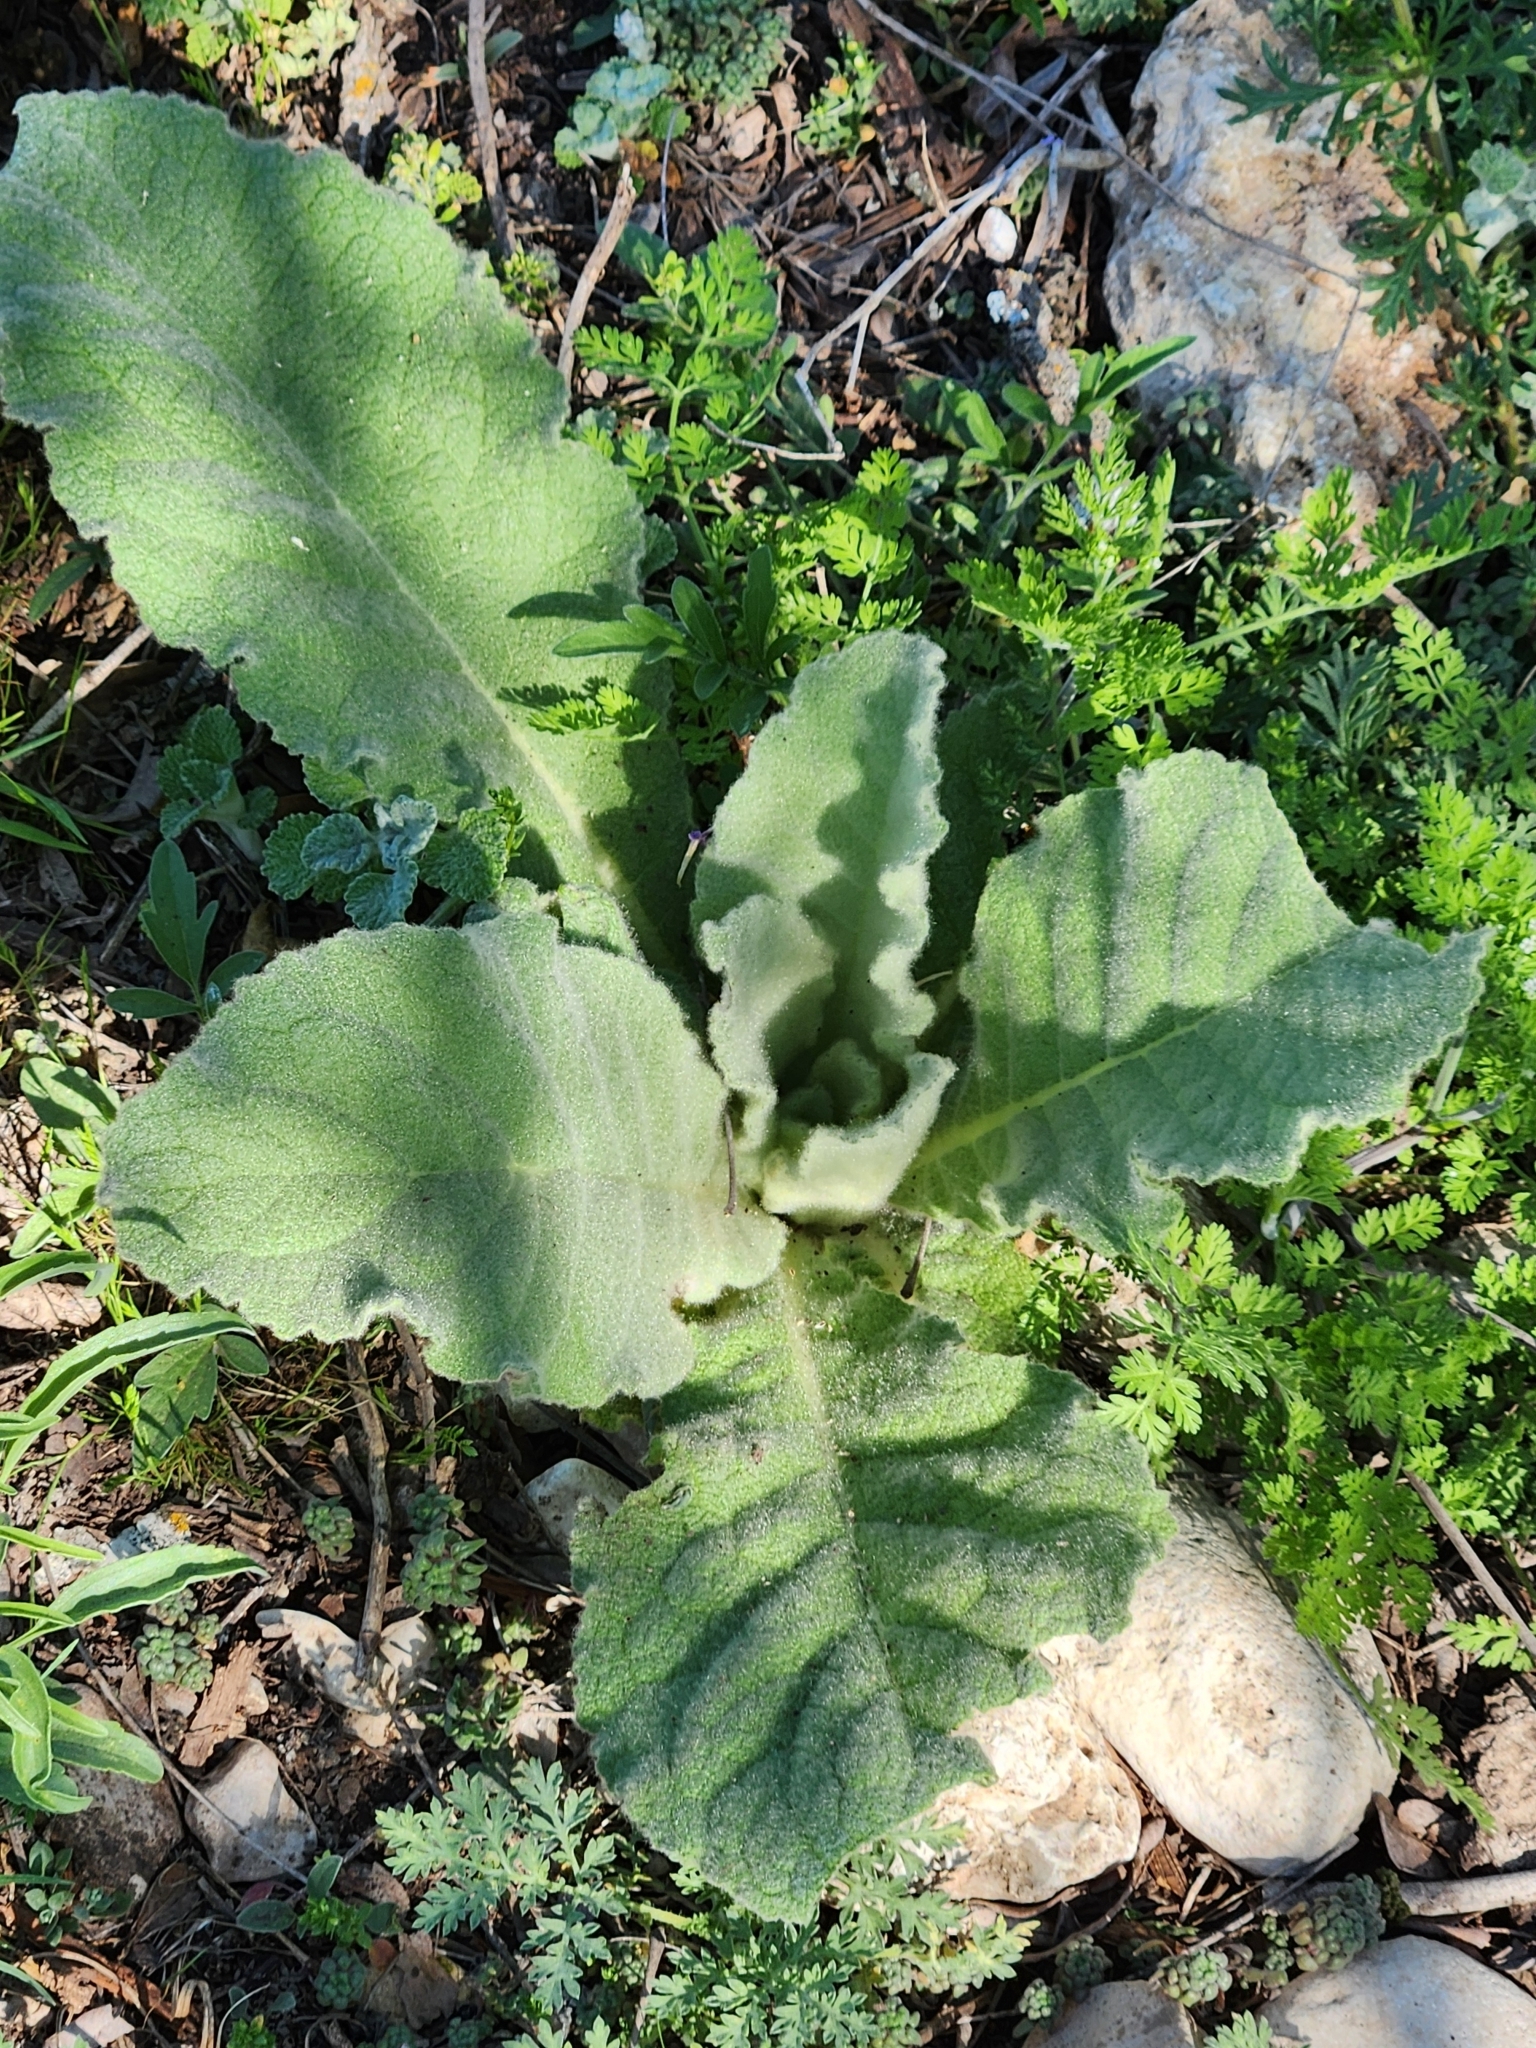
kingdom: Plantae
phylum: Tracheophyta
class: Magnoliopsida
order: Lamiales
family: Scrophulariaceae
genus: Verbascum
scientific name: Verbascum thapsus
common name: Common mullein
